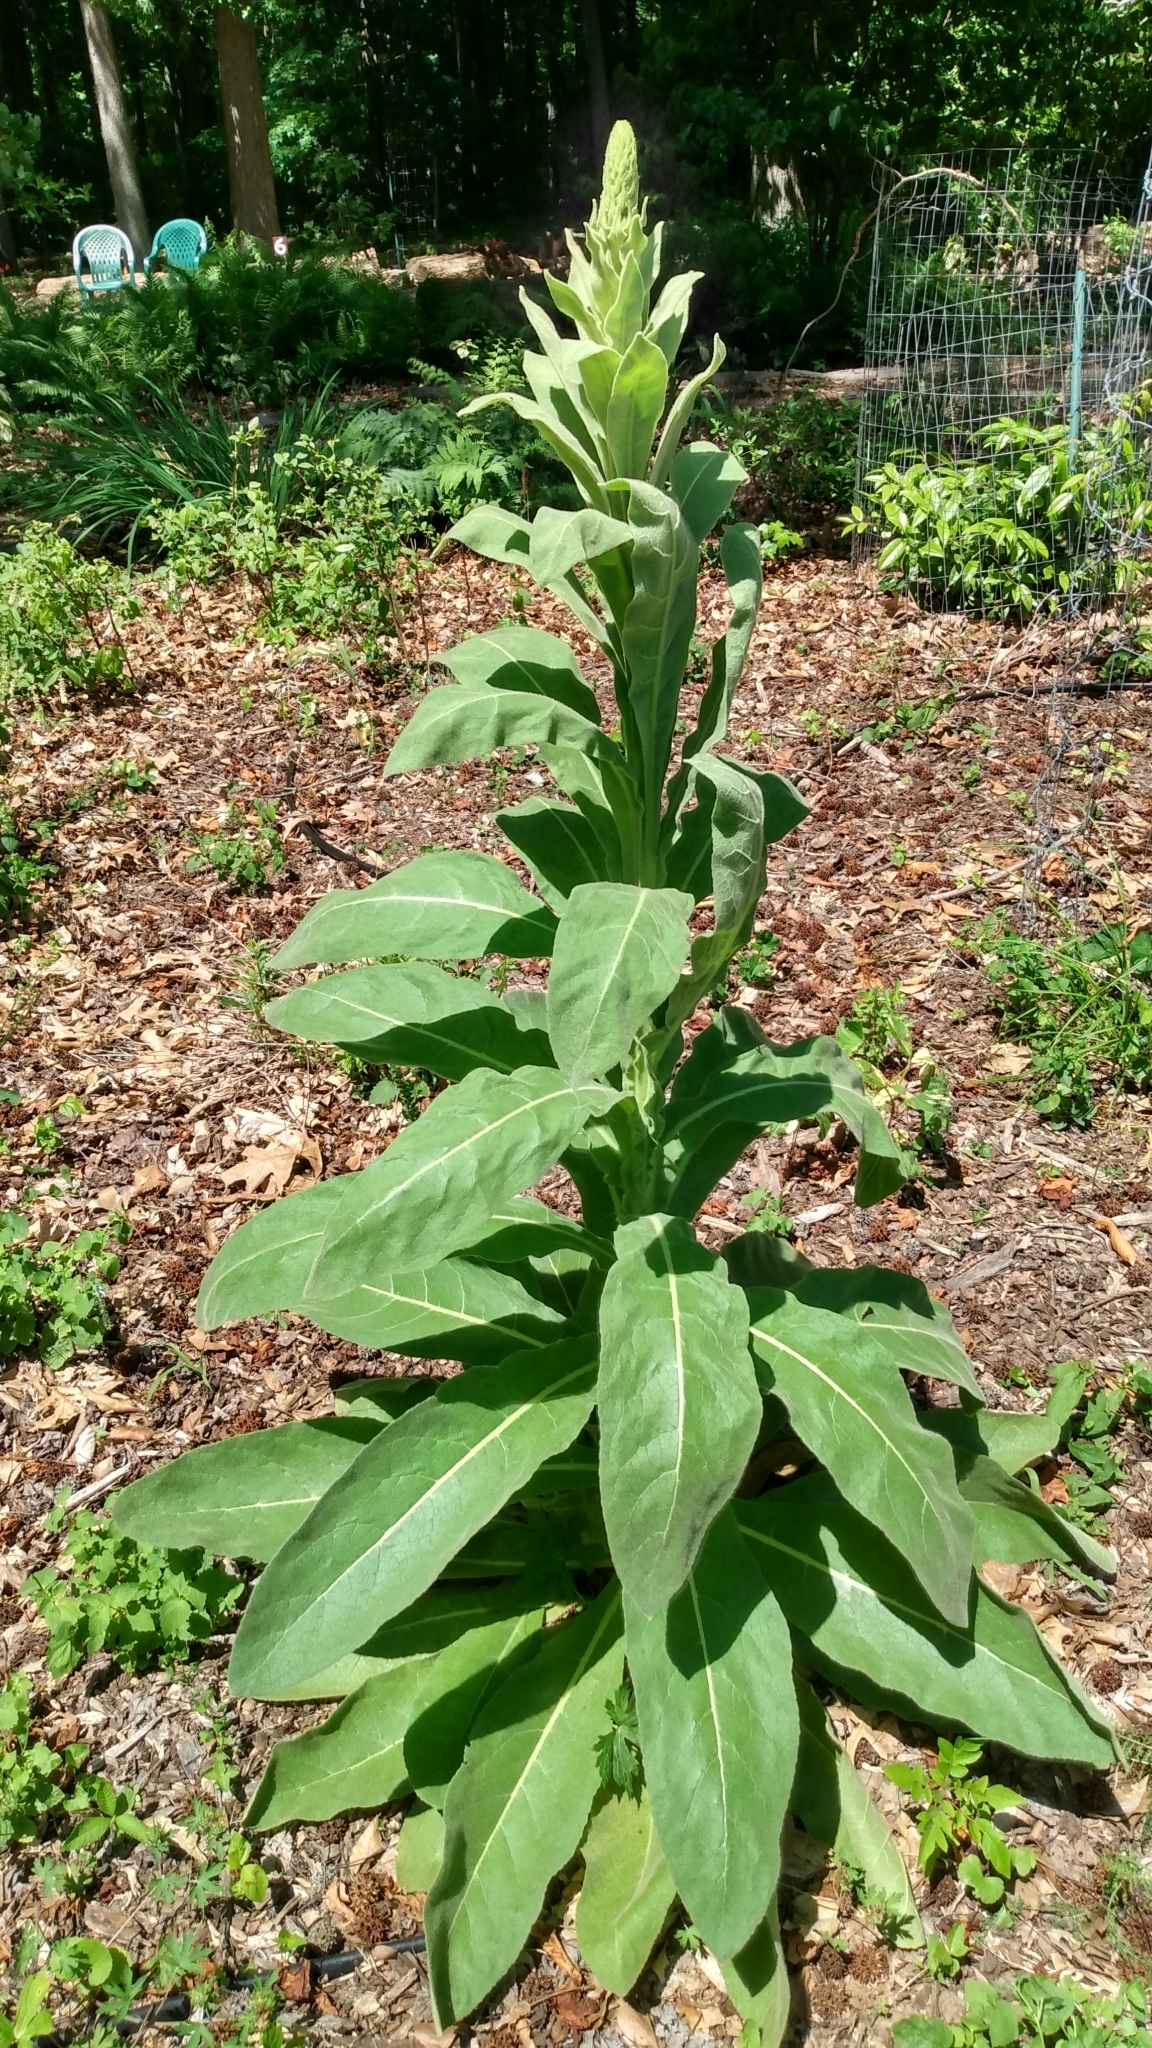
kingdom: Plantae
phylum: Tracheophyta
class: Magnoliopsida
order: Lamiales
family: Scrophulariaceae
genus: Verbascum
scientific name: Verbascum thapsus
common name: Common mullein
